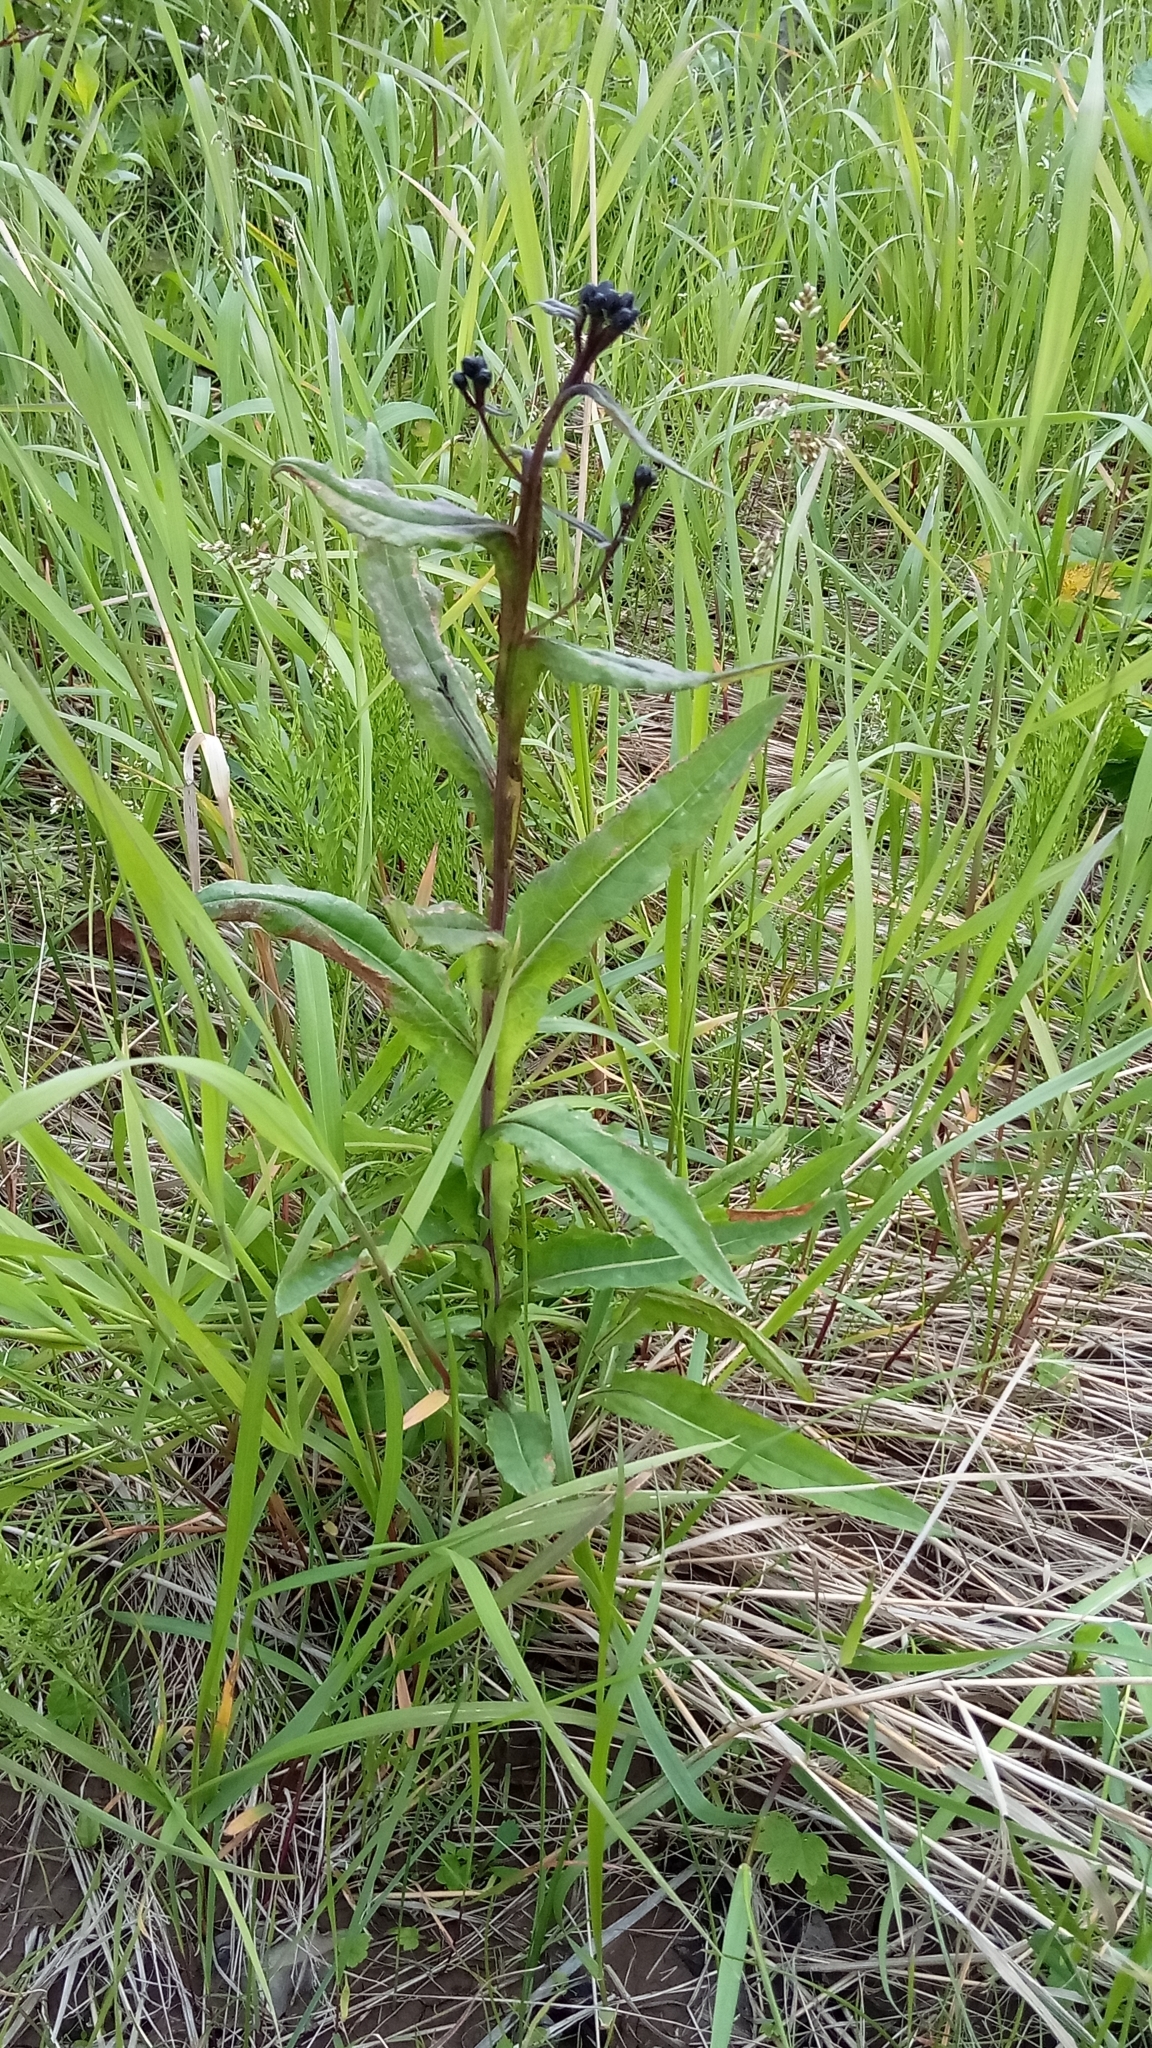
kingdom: Plantae
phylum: Tracheophyta
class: Magnoliopsida
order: Asterales
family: Asteraceae
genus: Saussurea
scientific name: Saussurea parviflora
